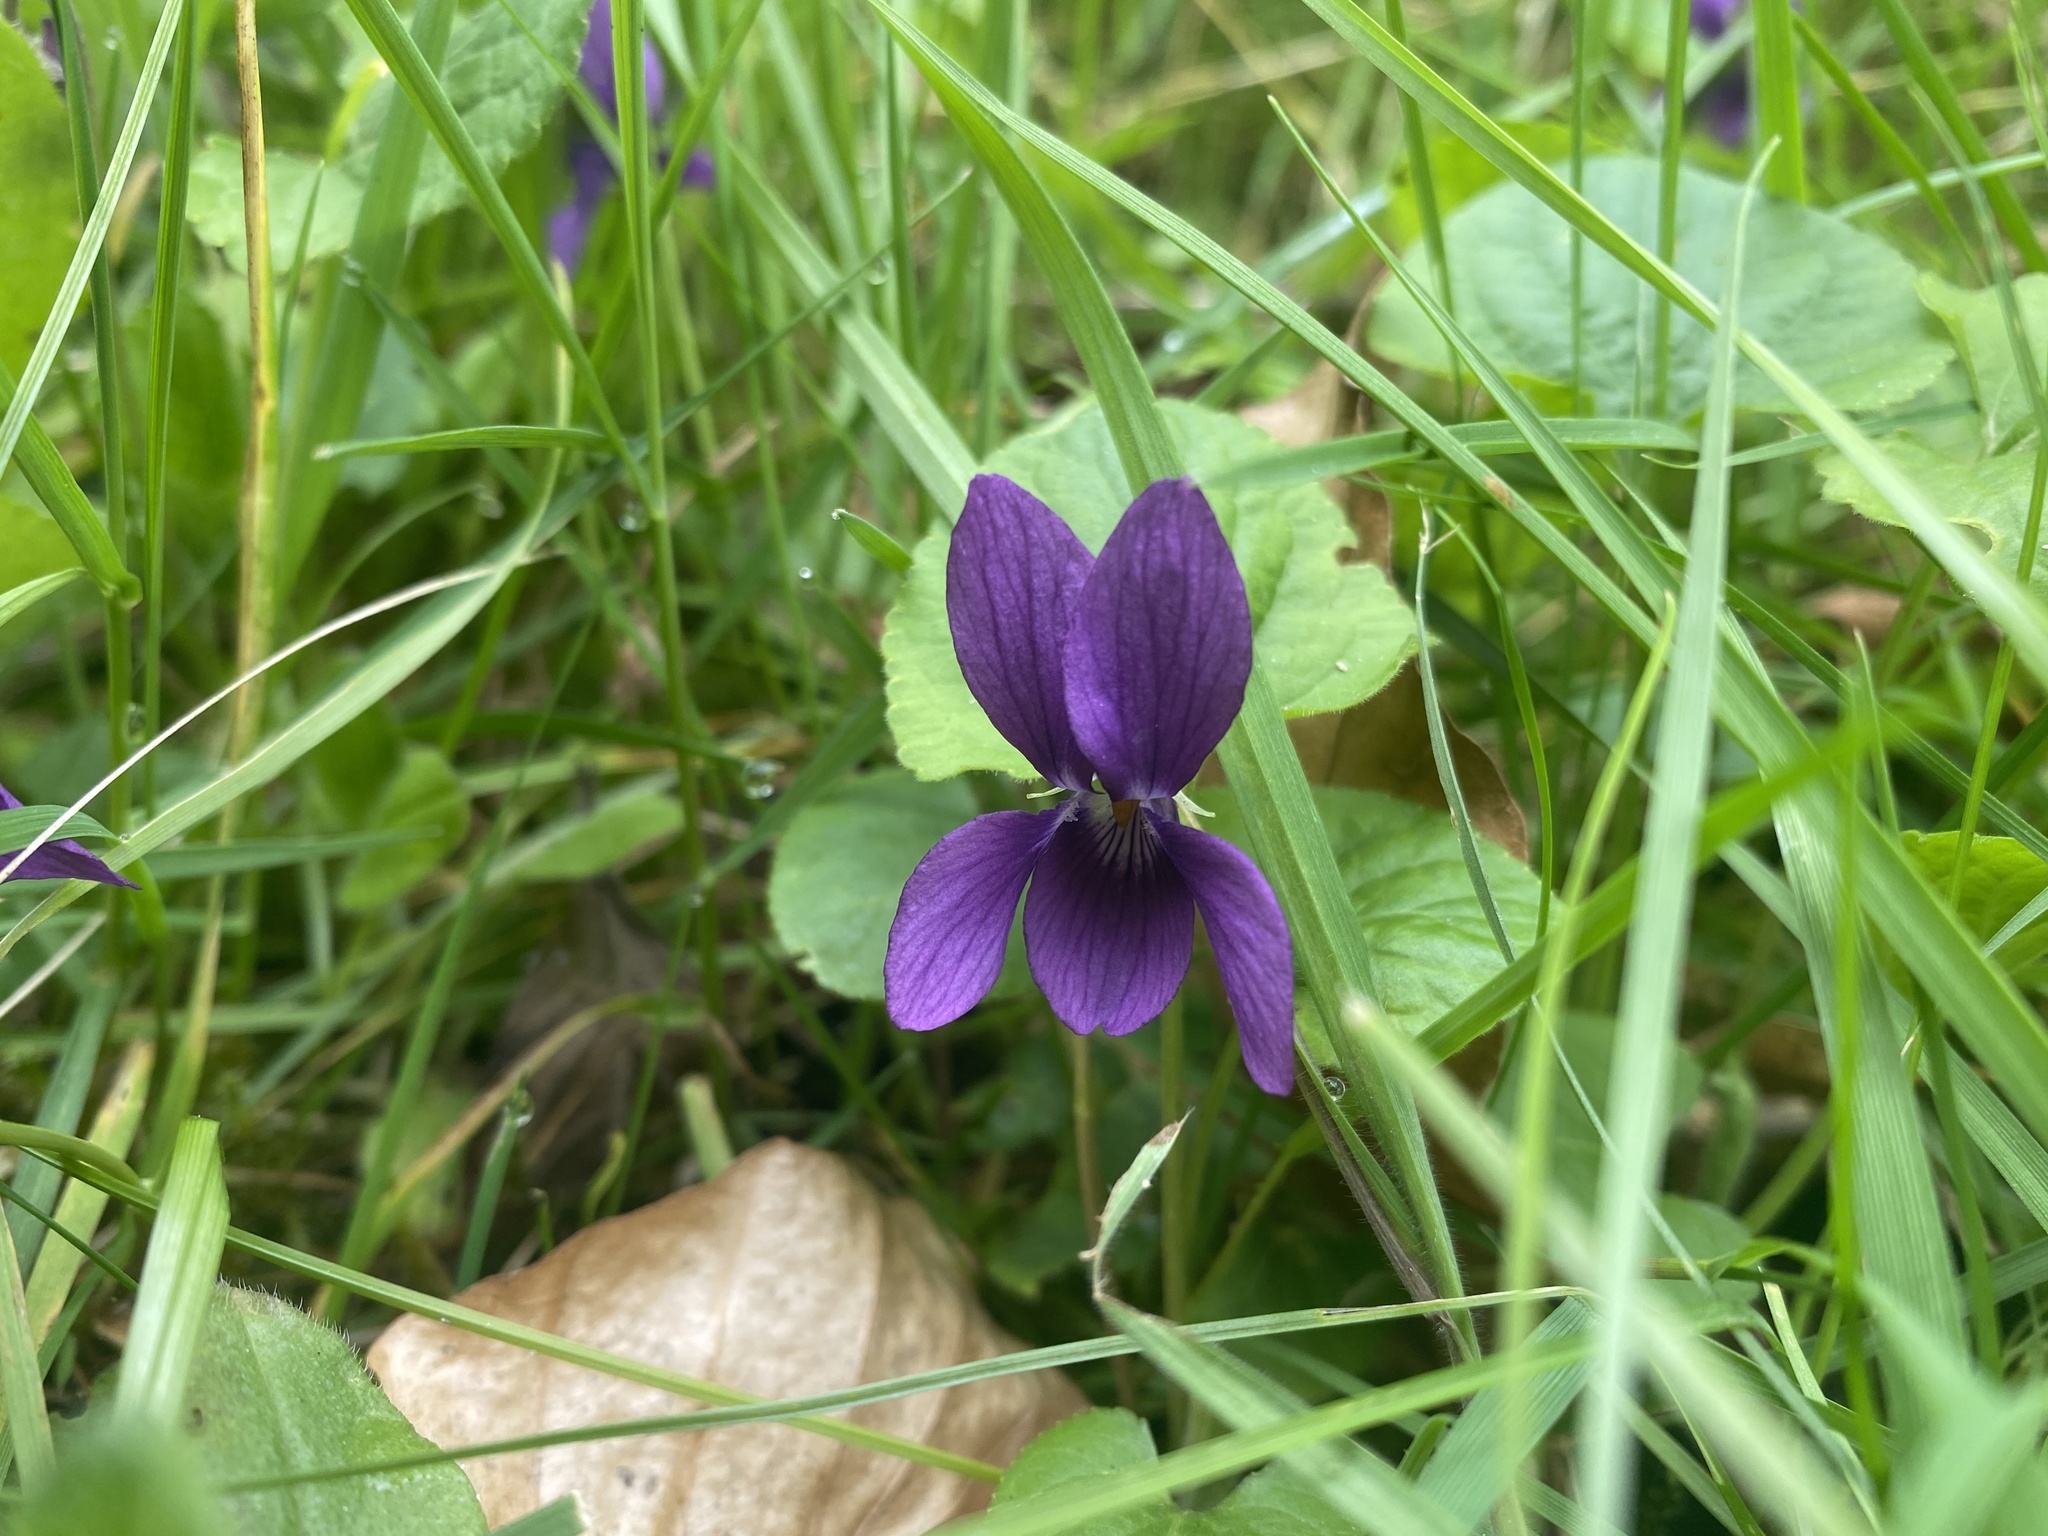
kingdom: Plantae
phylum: Tracheophyta
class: Magnoliopsida
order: Malpighiales
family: Violaceae
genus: Viola
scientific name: Viola odorata
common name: Sweet violet
